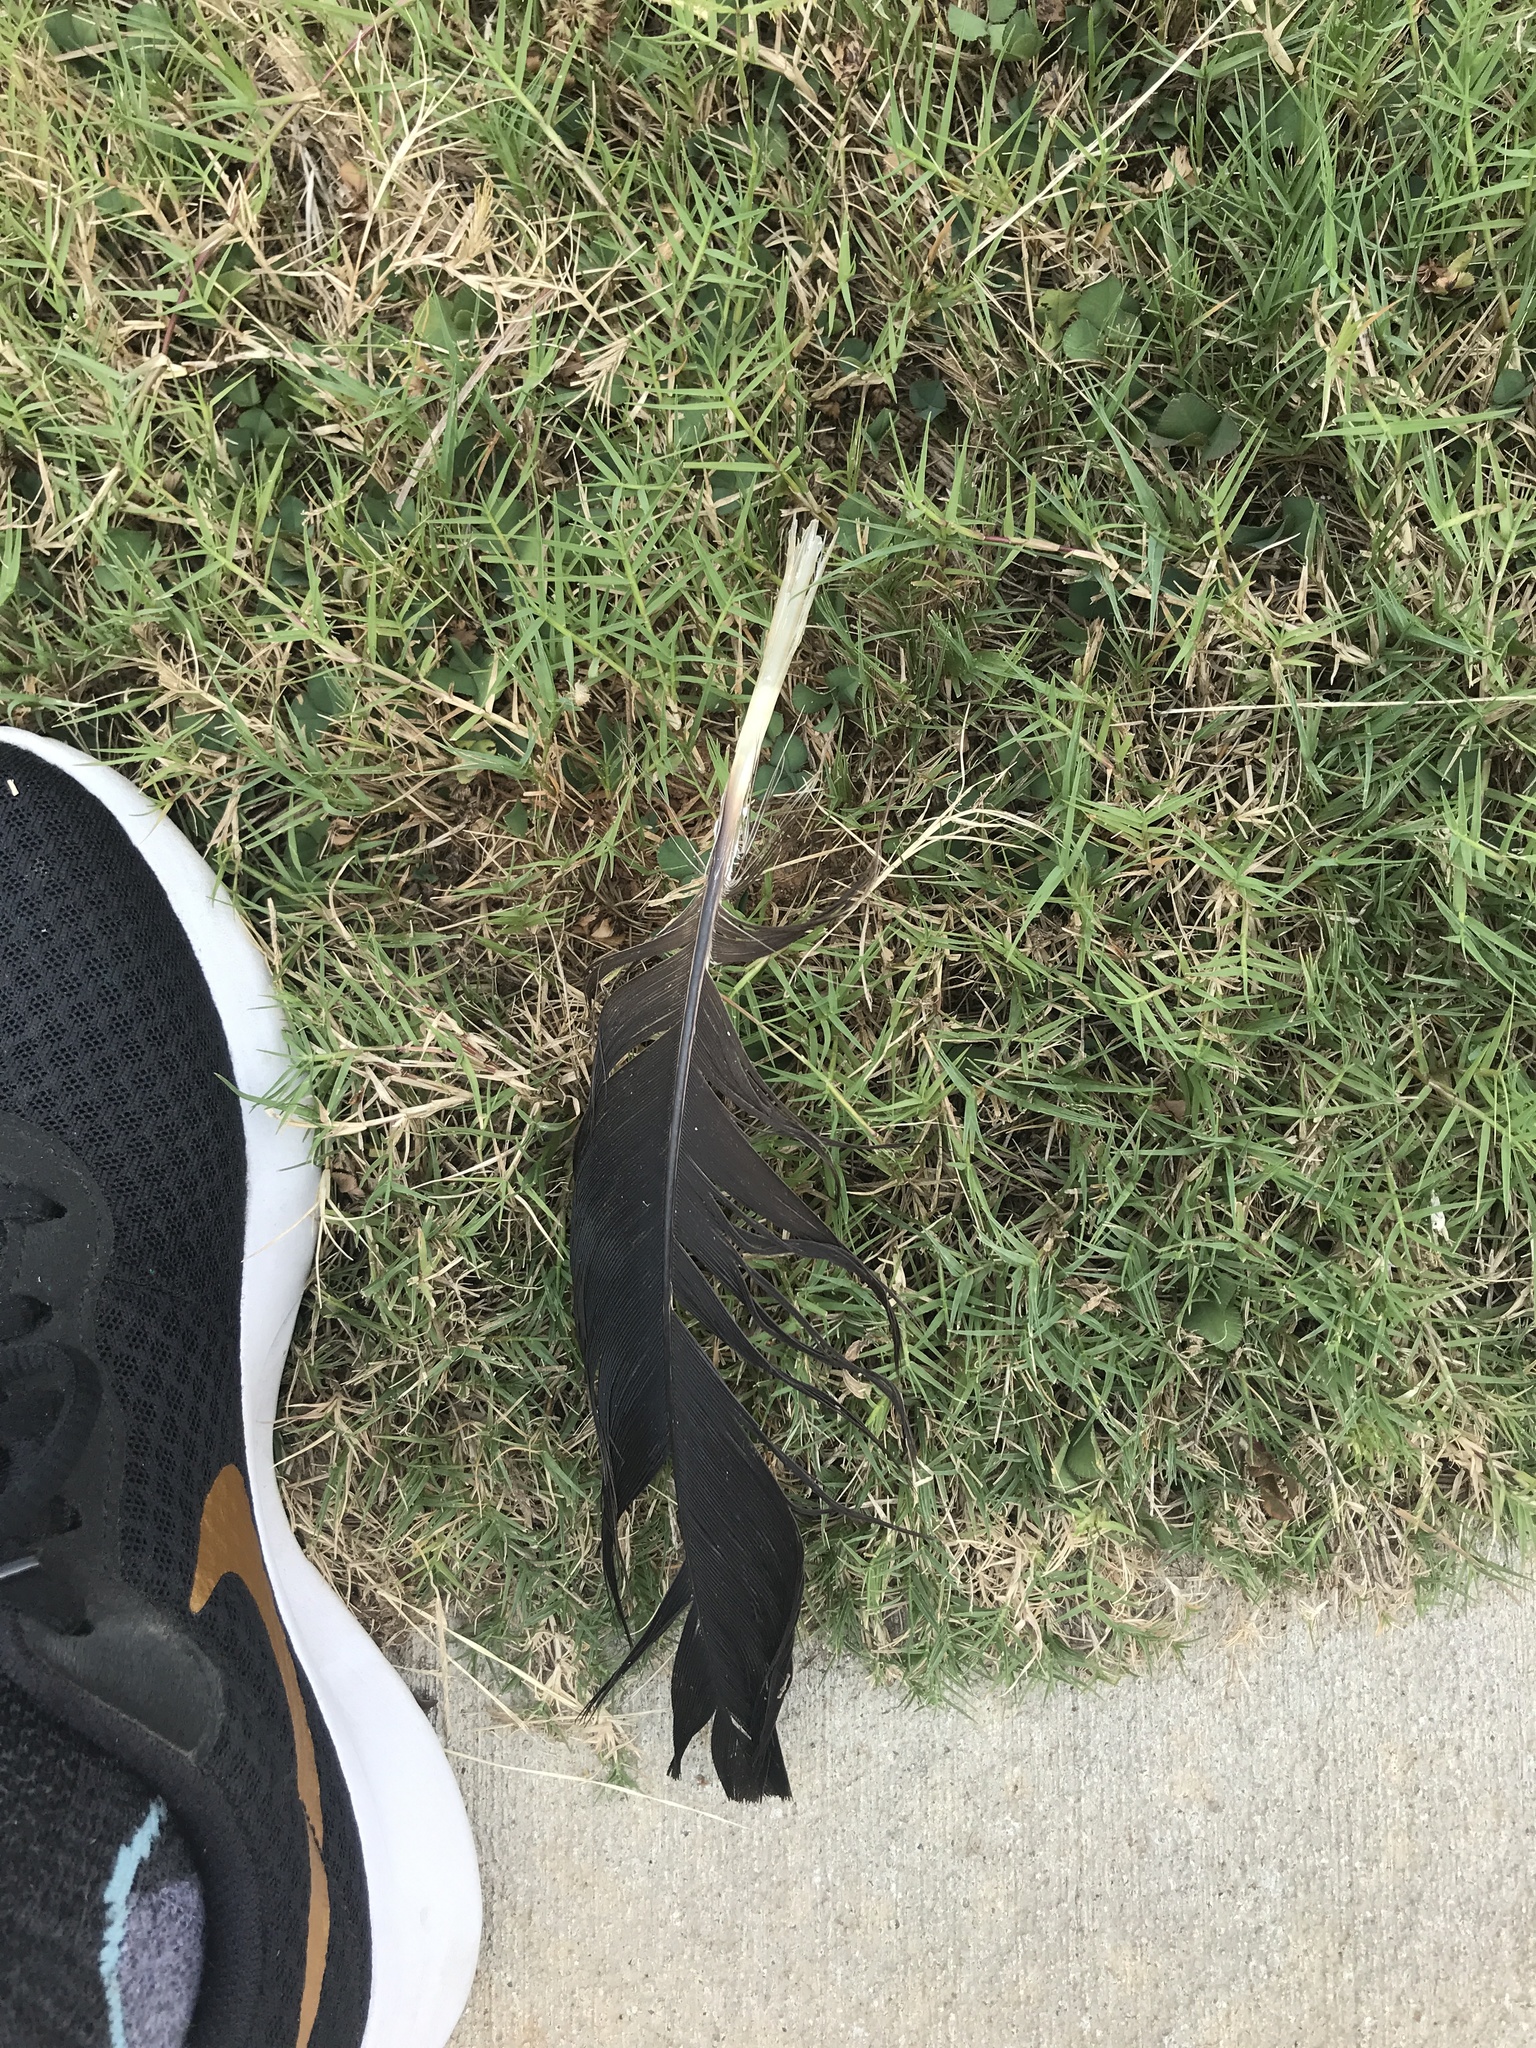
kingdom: Animalia
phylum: Chordata
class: Aves
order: Accipitriformes
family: Cathartidae
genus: Coragyps
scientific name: Coragyps atratus
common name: Black vulture
